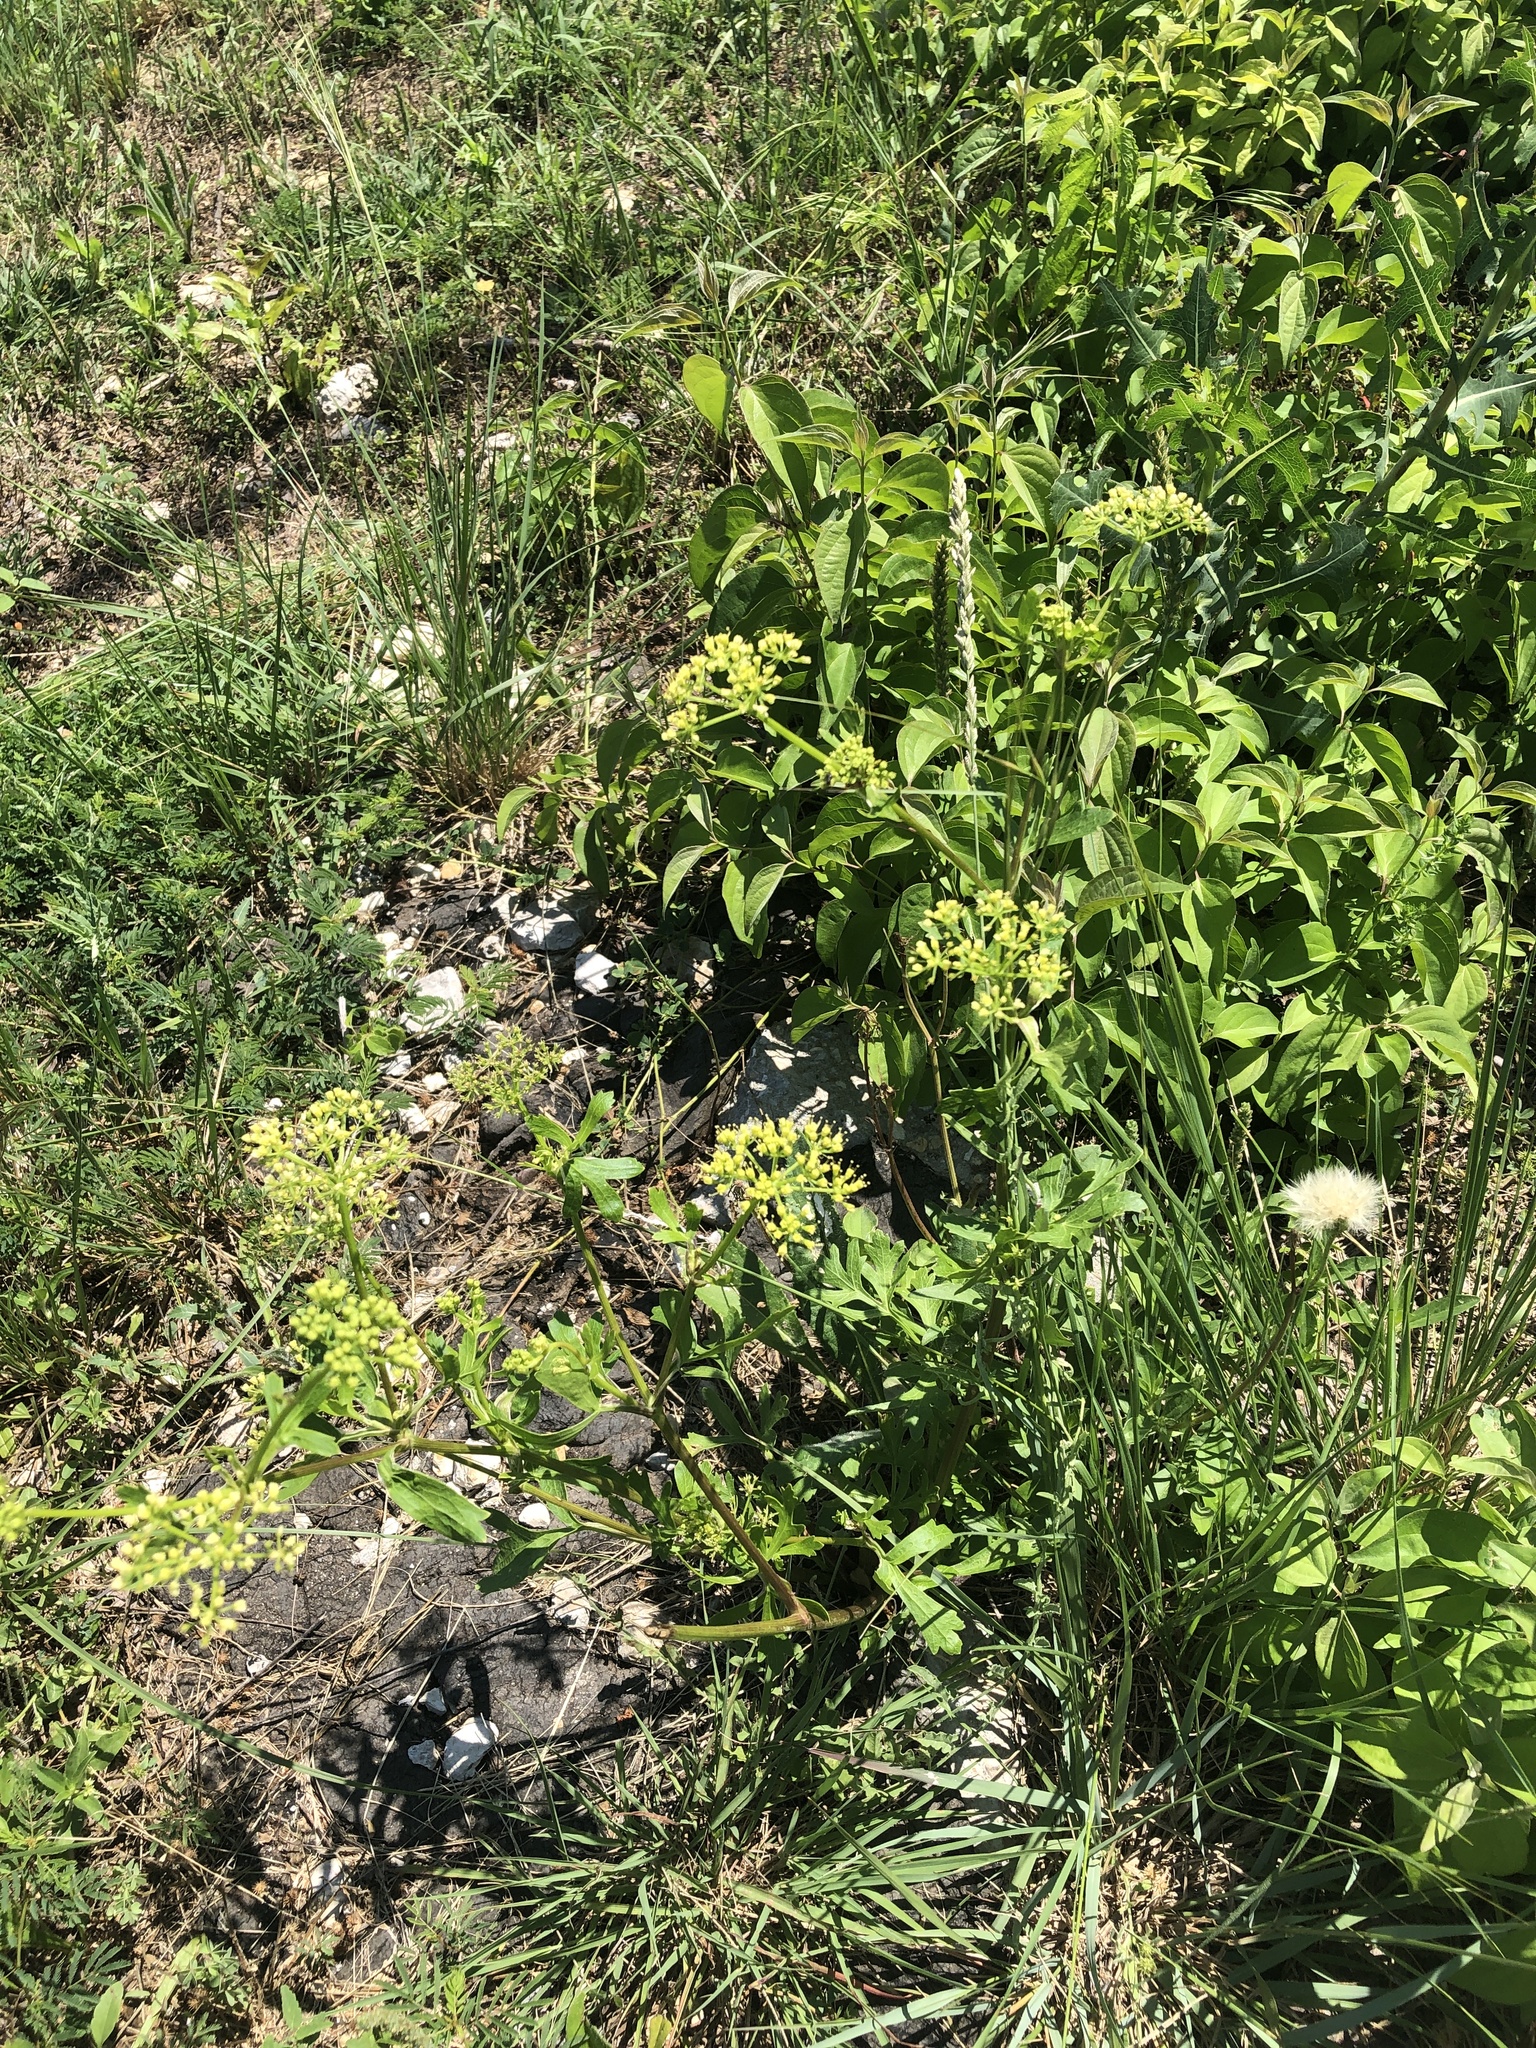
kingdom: Plantae
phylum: Tracheophyta
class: Magnoliopsida
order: Apiales
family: Apiaceae
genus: Polytaenia
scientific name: Polytaenia texana
